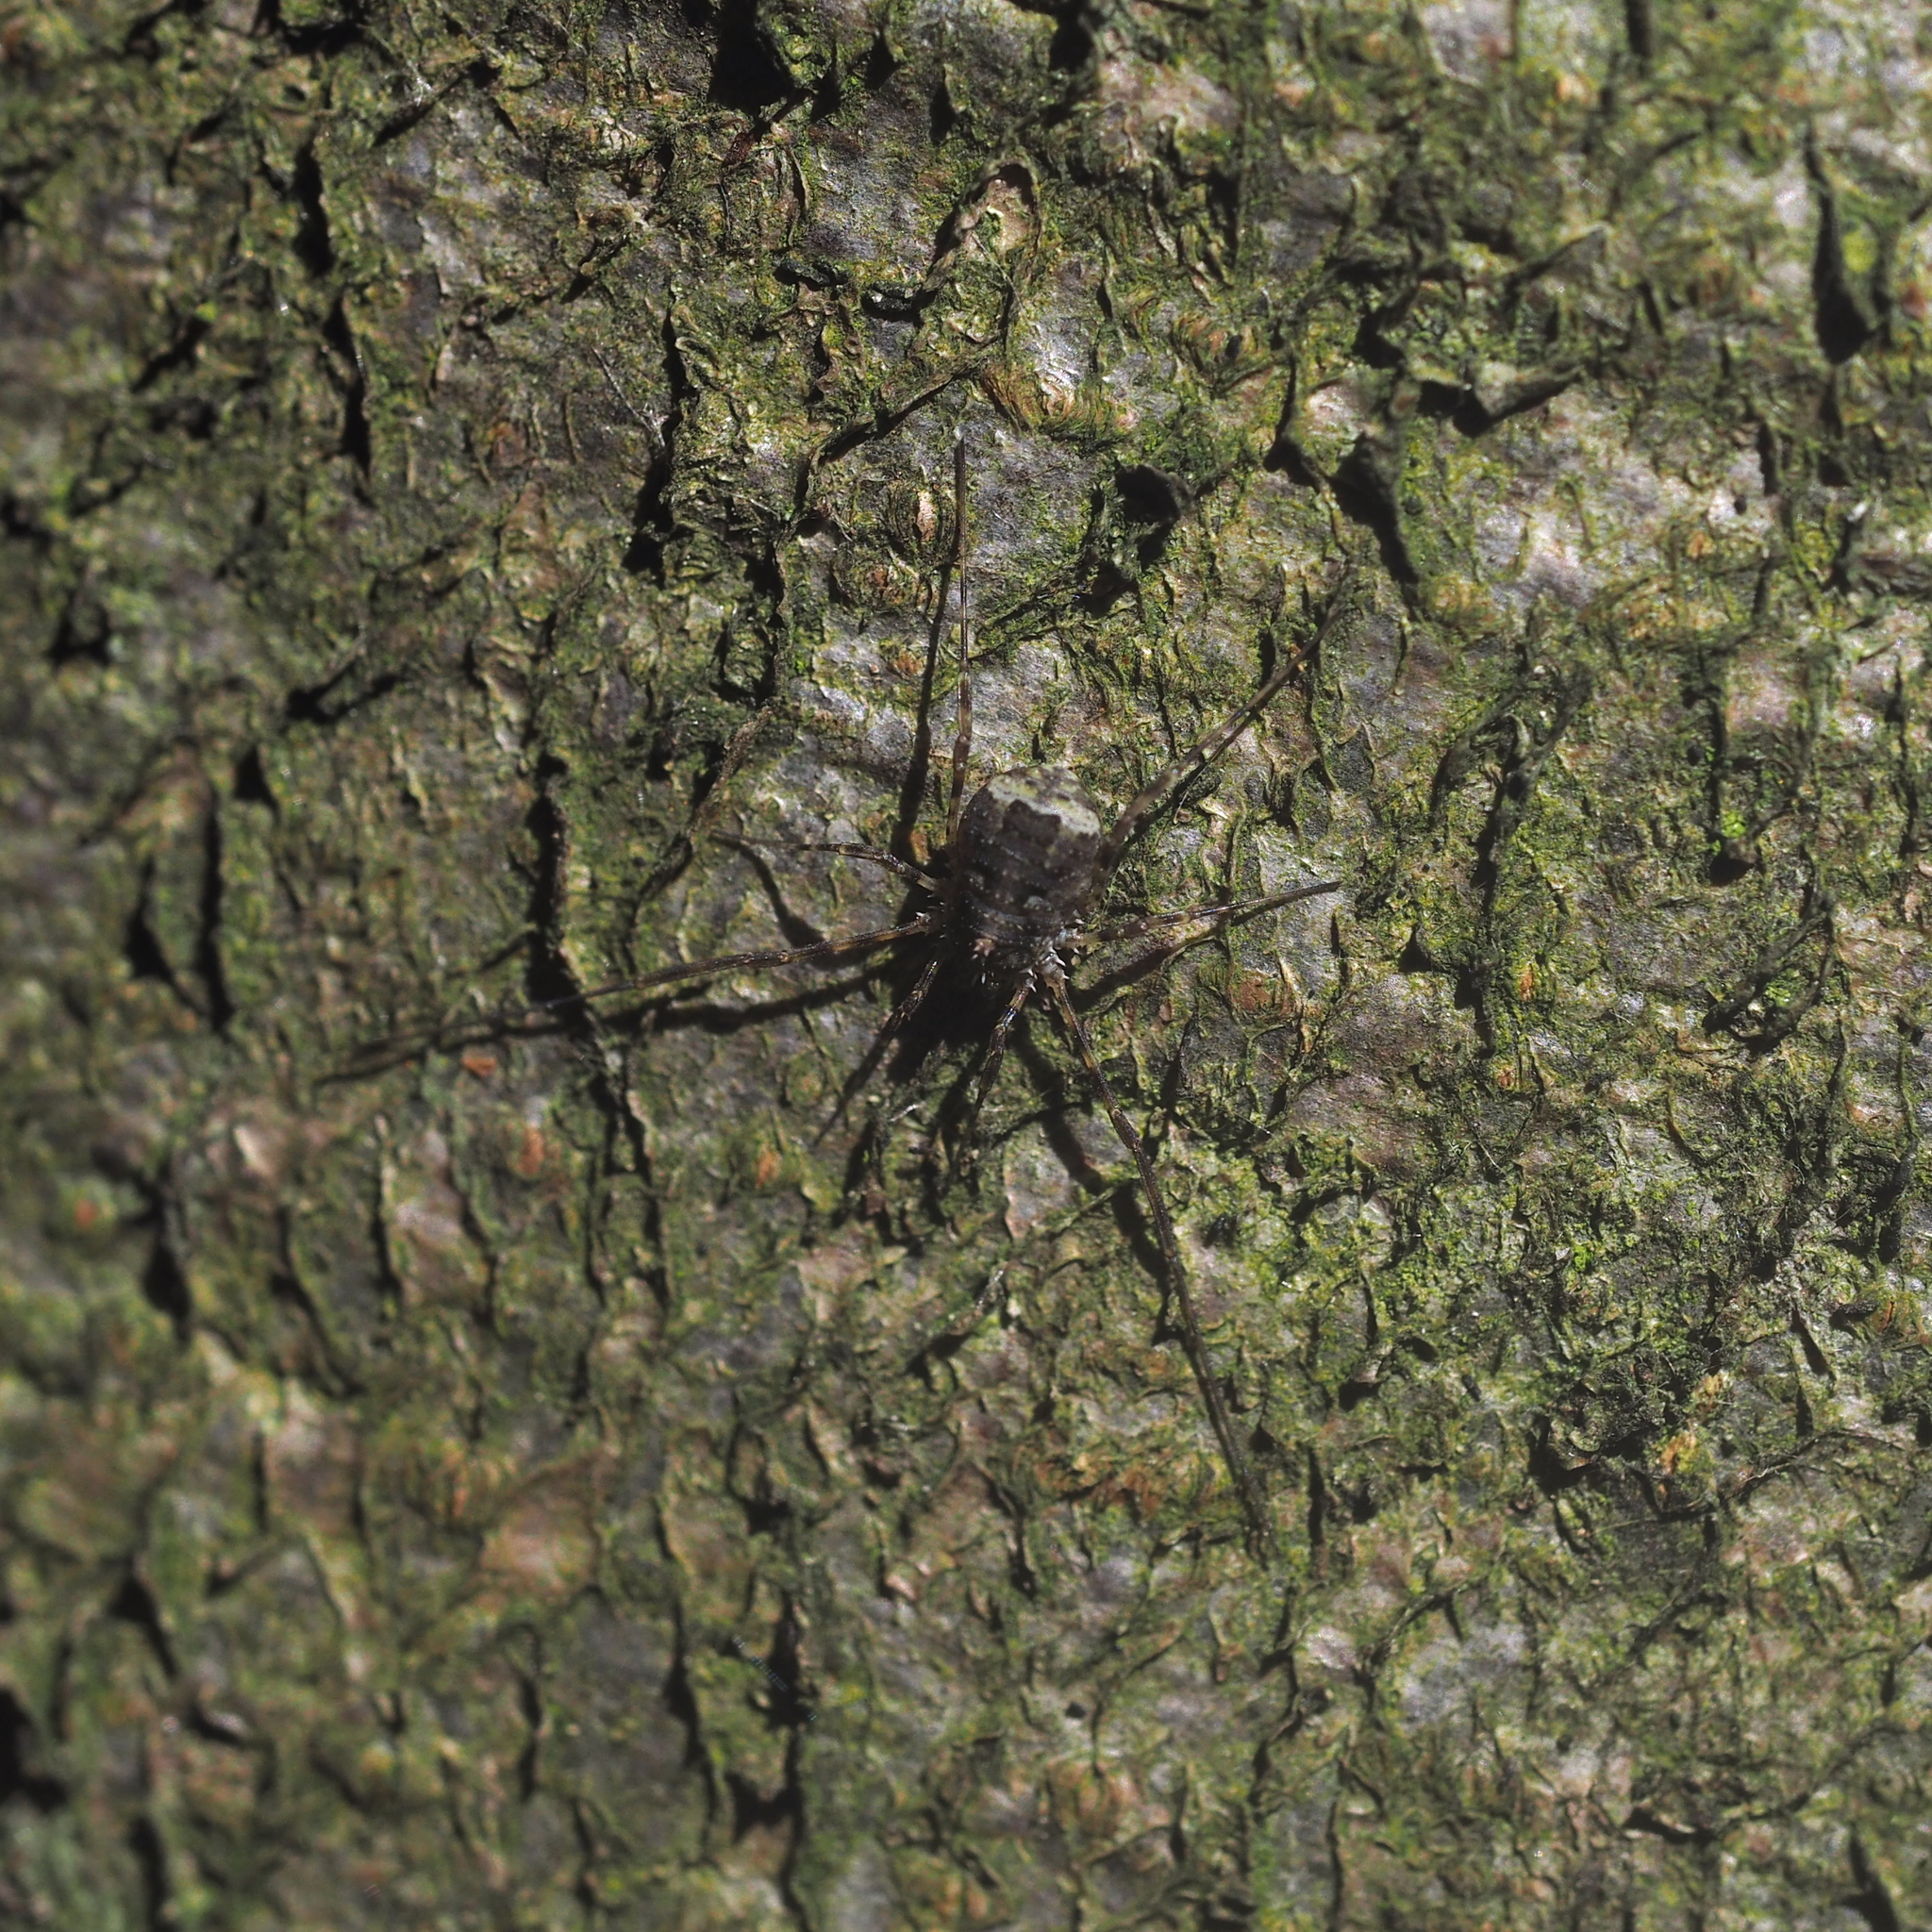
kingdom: Animalia
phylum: Arthropoda
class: Arachnida
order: Opiliones
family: Phalangiidae
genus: Lacinius
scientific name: Lacinius dentiger
